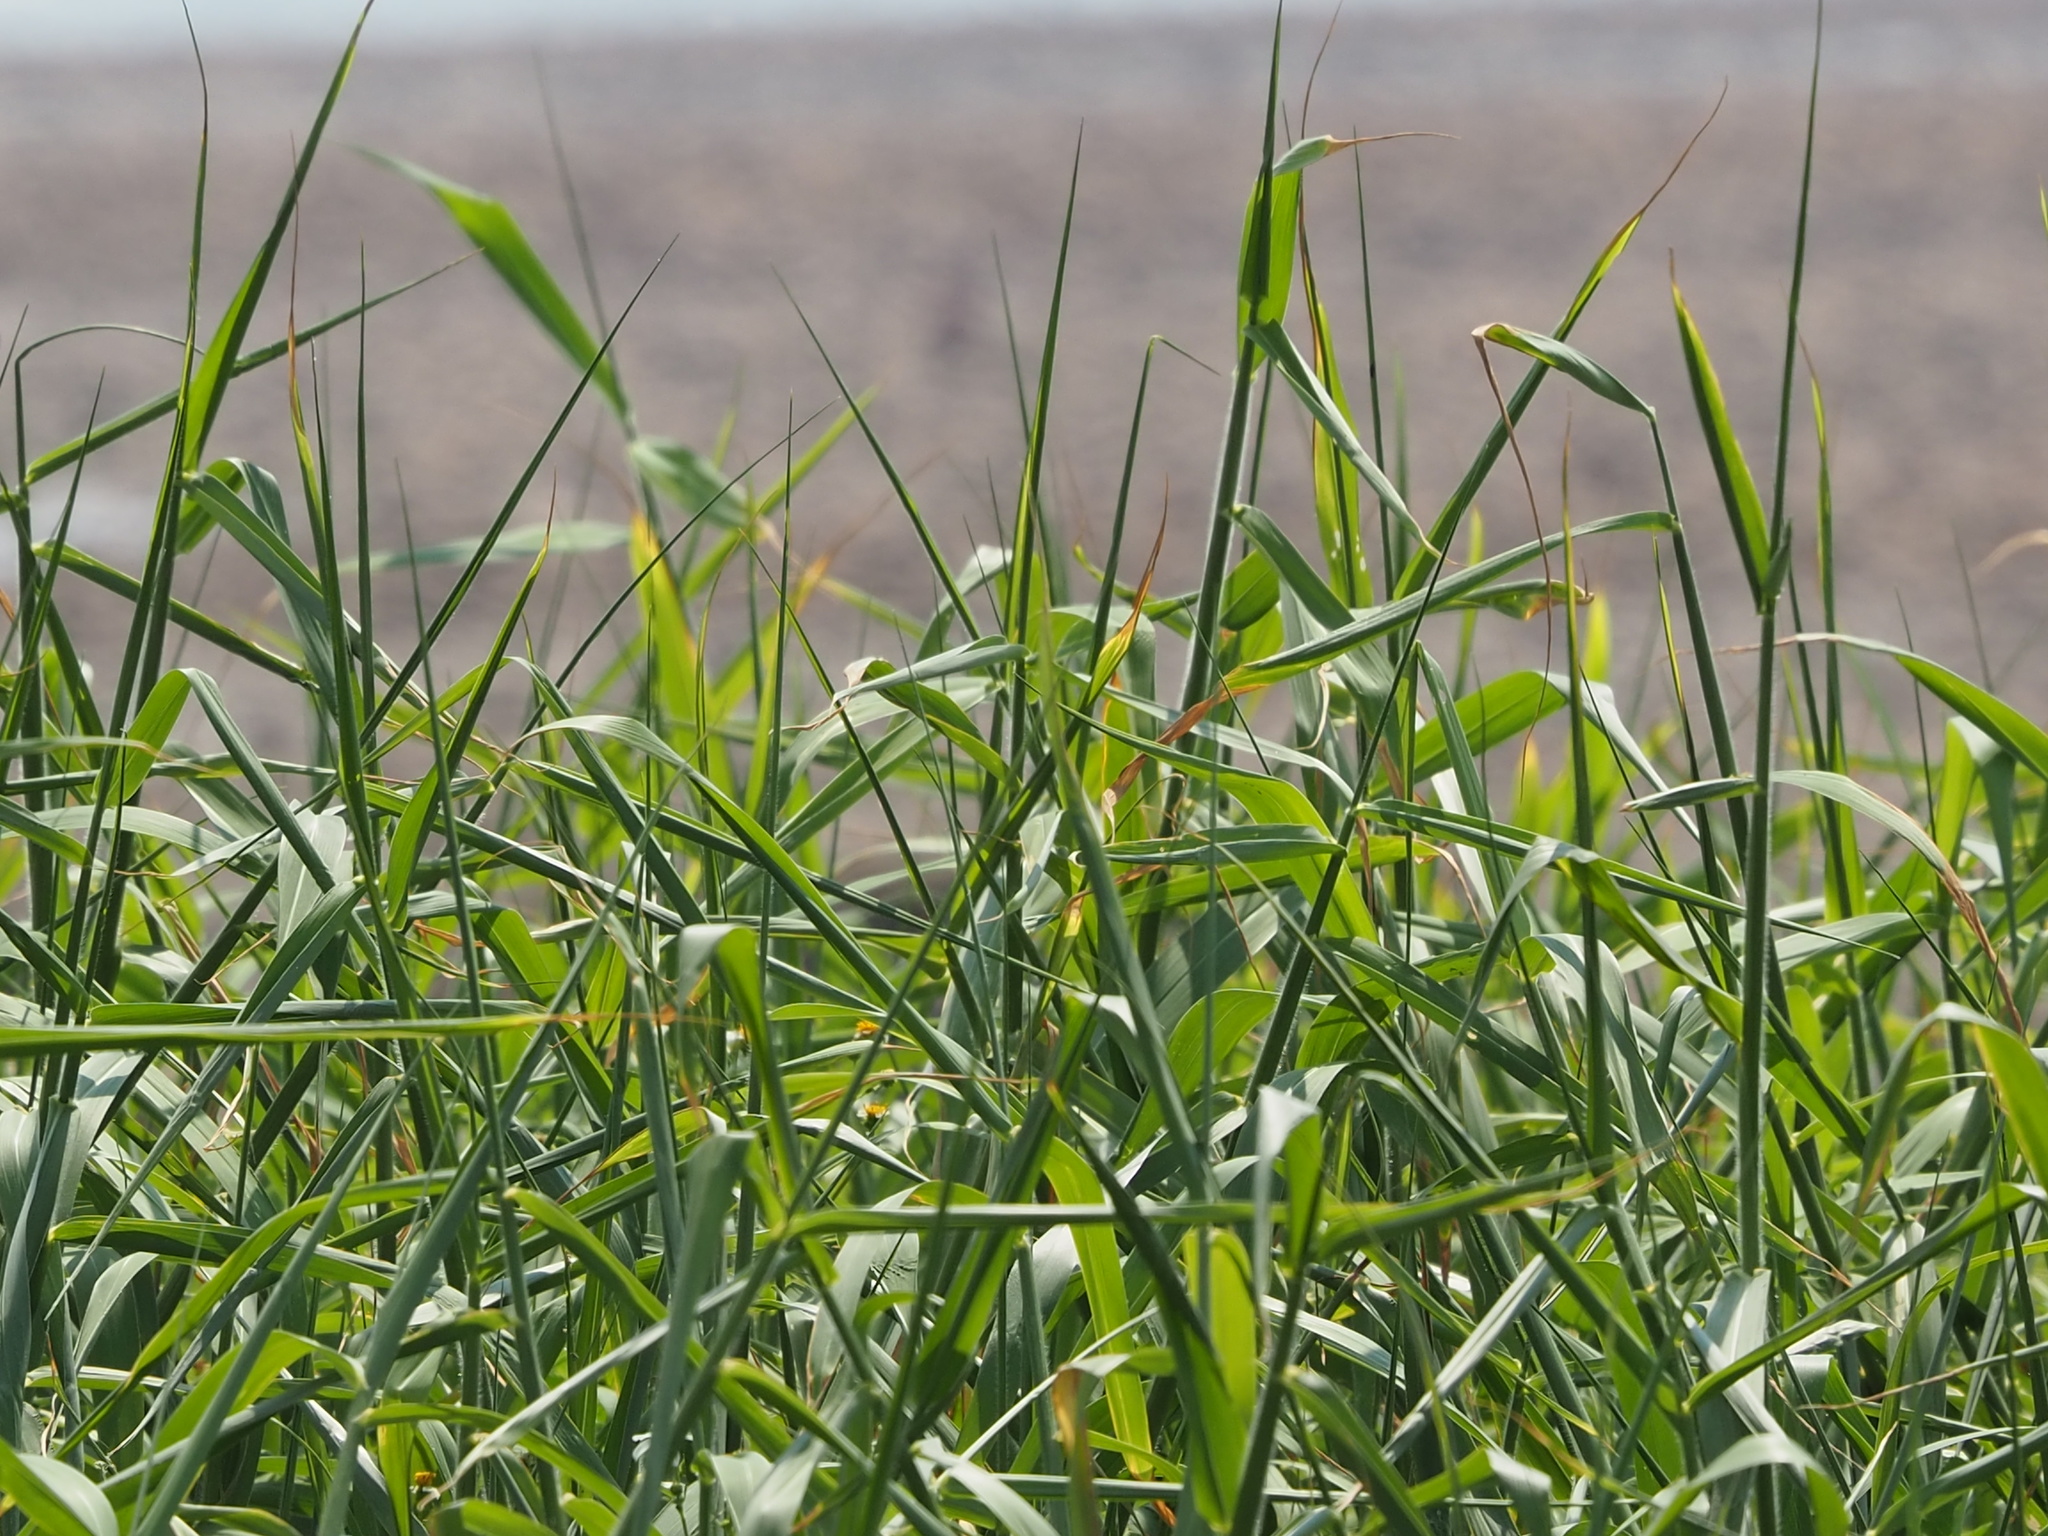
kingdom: Plantae
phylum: Tracheophyta
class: Liliopsida
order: Poales
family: Poaceae
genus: Urochloa
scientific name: Urochloa mutica
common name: Para grass
